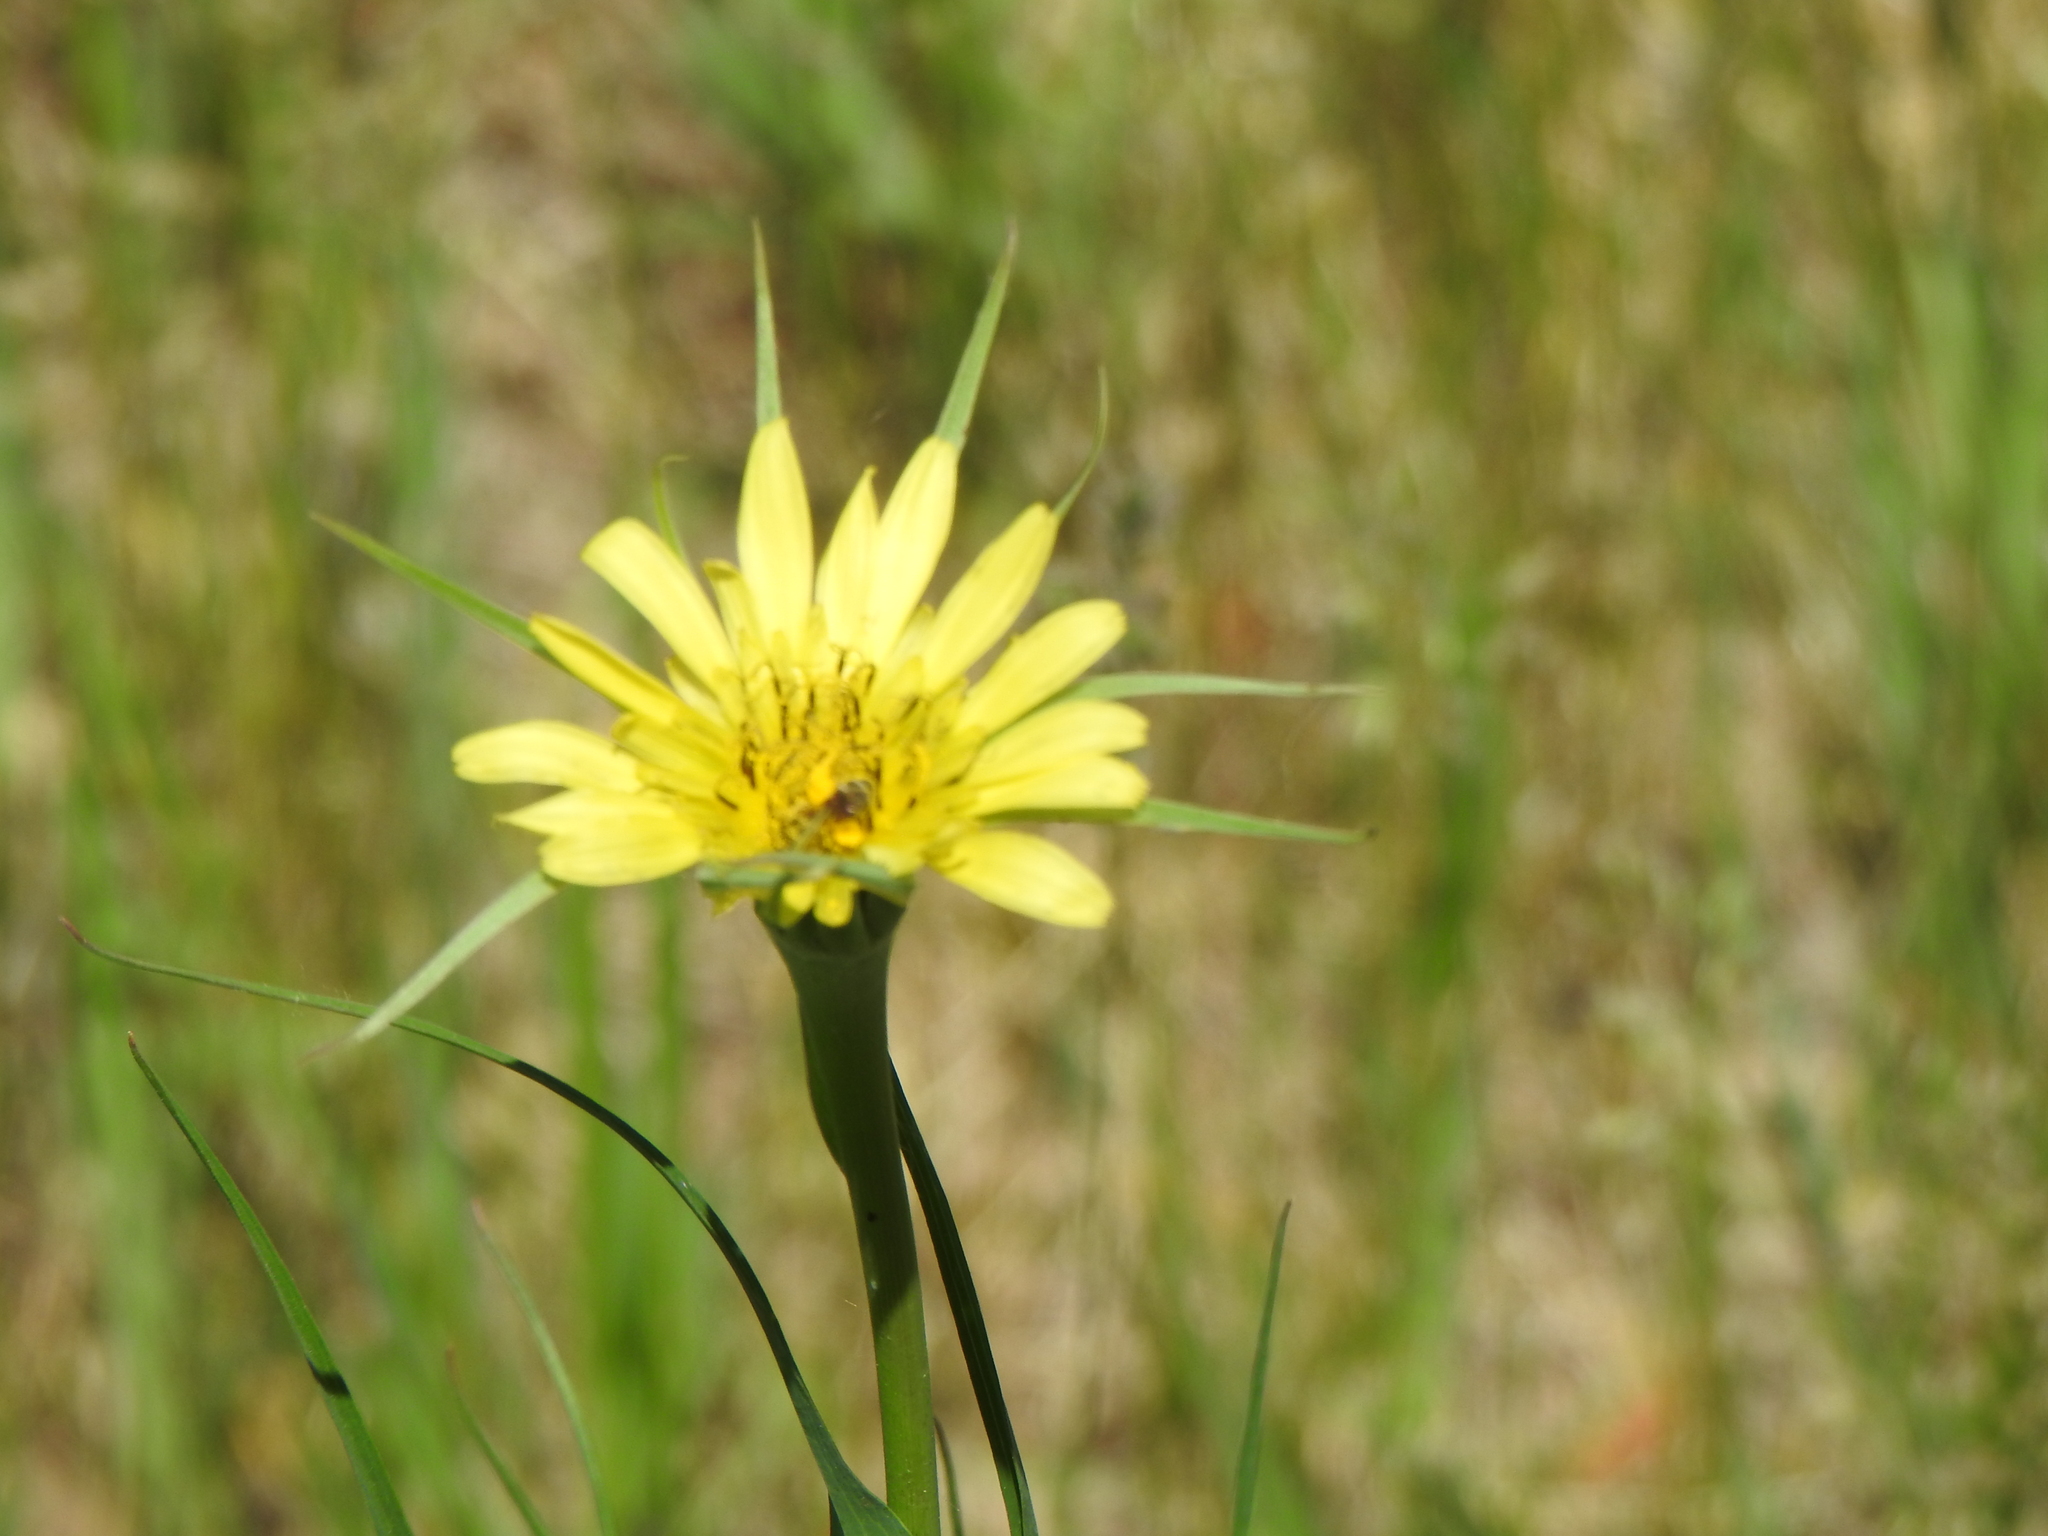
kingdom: Plantae
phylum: Tracheophyta
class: Magnoliopsida
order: Asterales
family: Asteraceae
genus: Tragopogon
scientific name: Tragopogon dubius
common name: Yellow salsify
